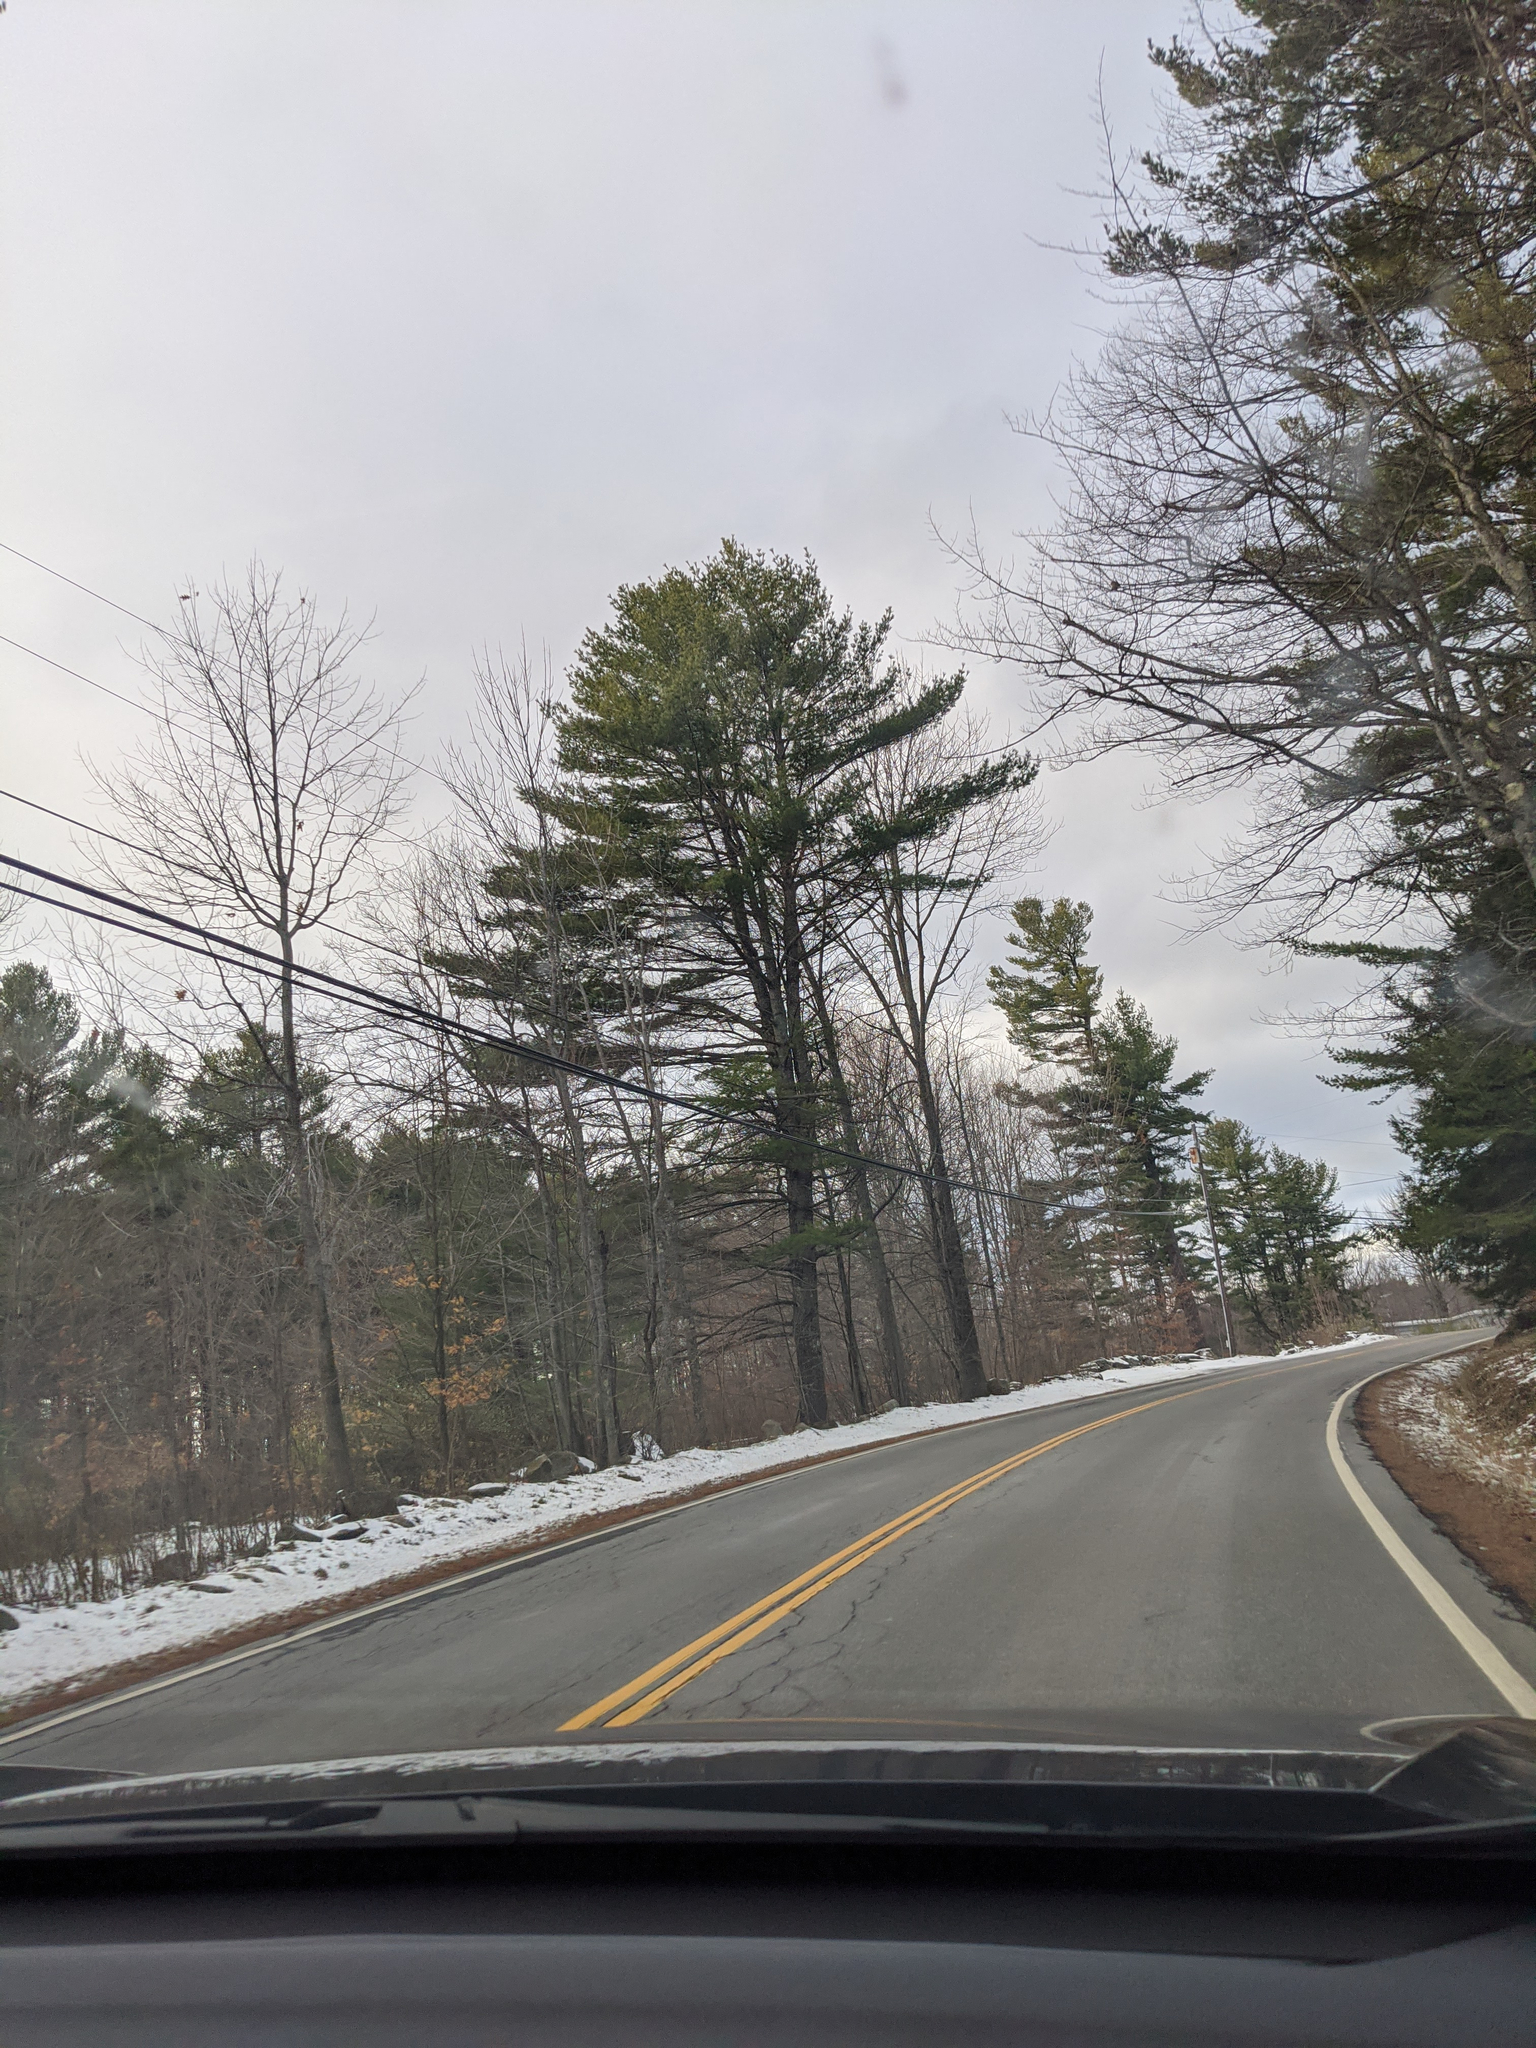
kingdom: Plantae
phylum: Tracheophyta
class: Pinopsida
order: Pinales
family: Pinaceae
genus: Pinus
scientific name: Pinus strobus
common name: Weymouth pine
